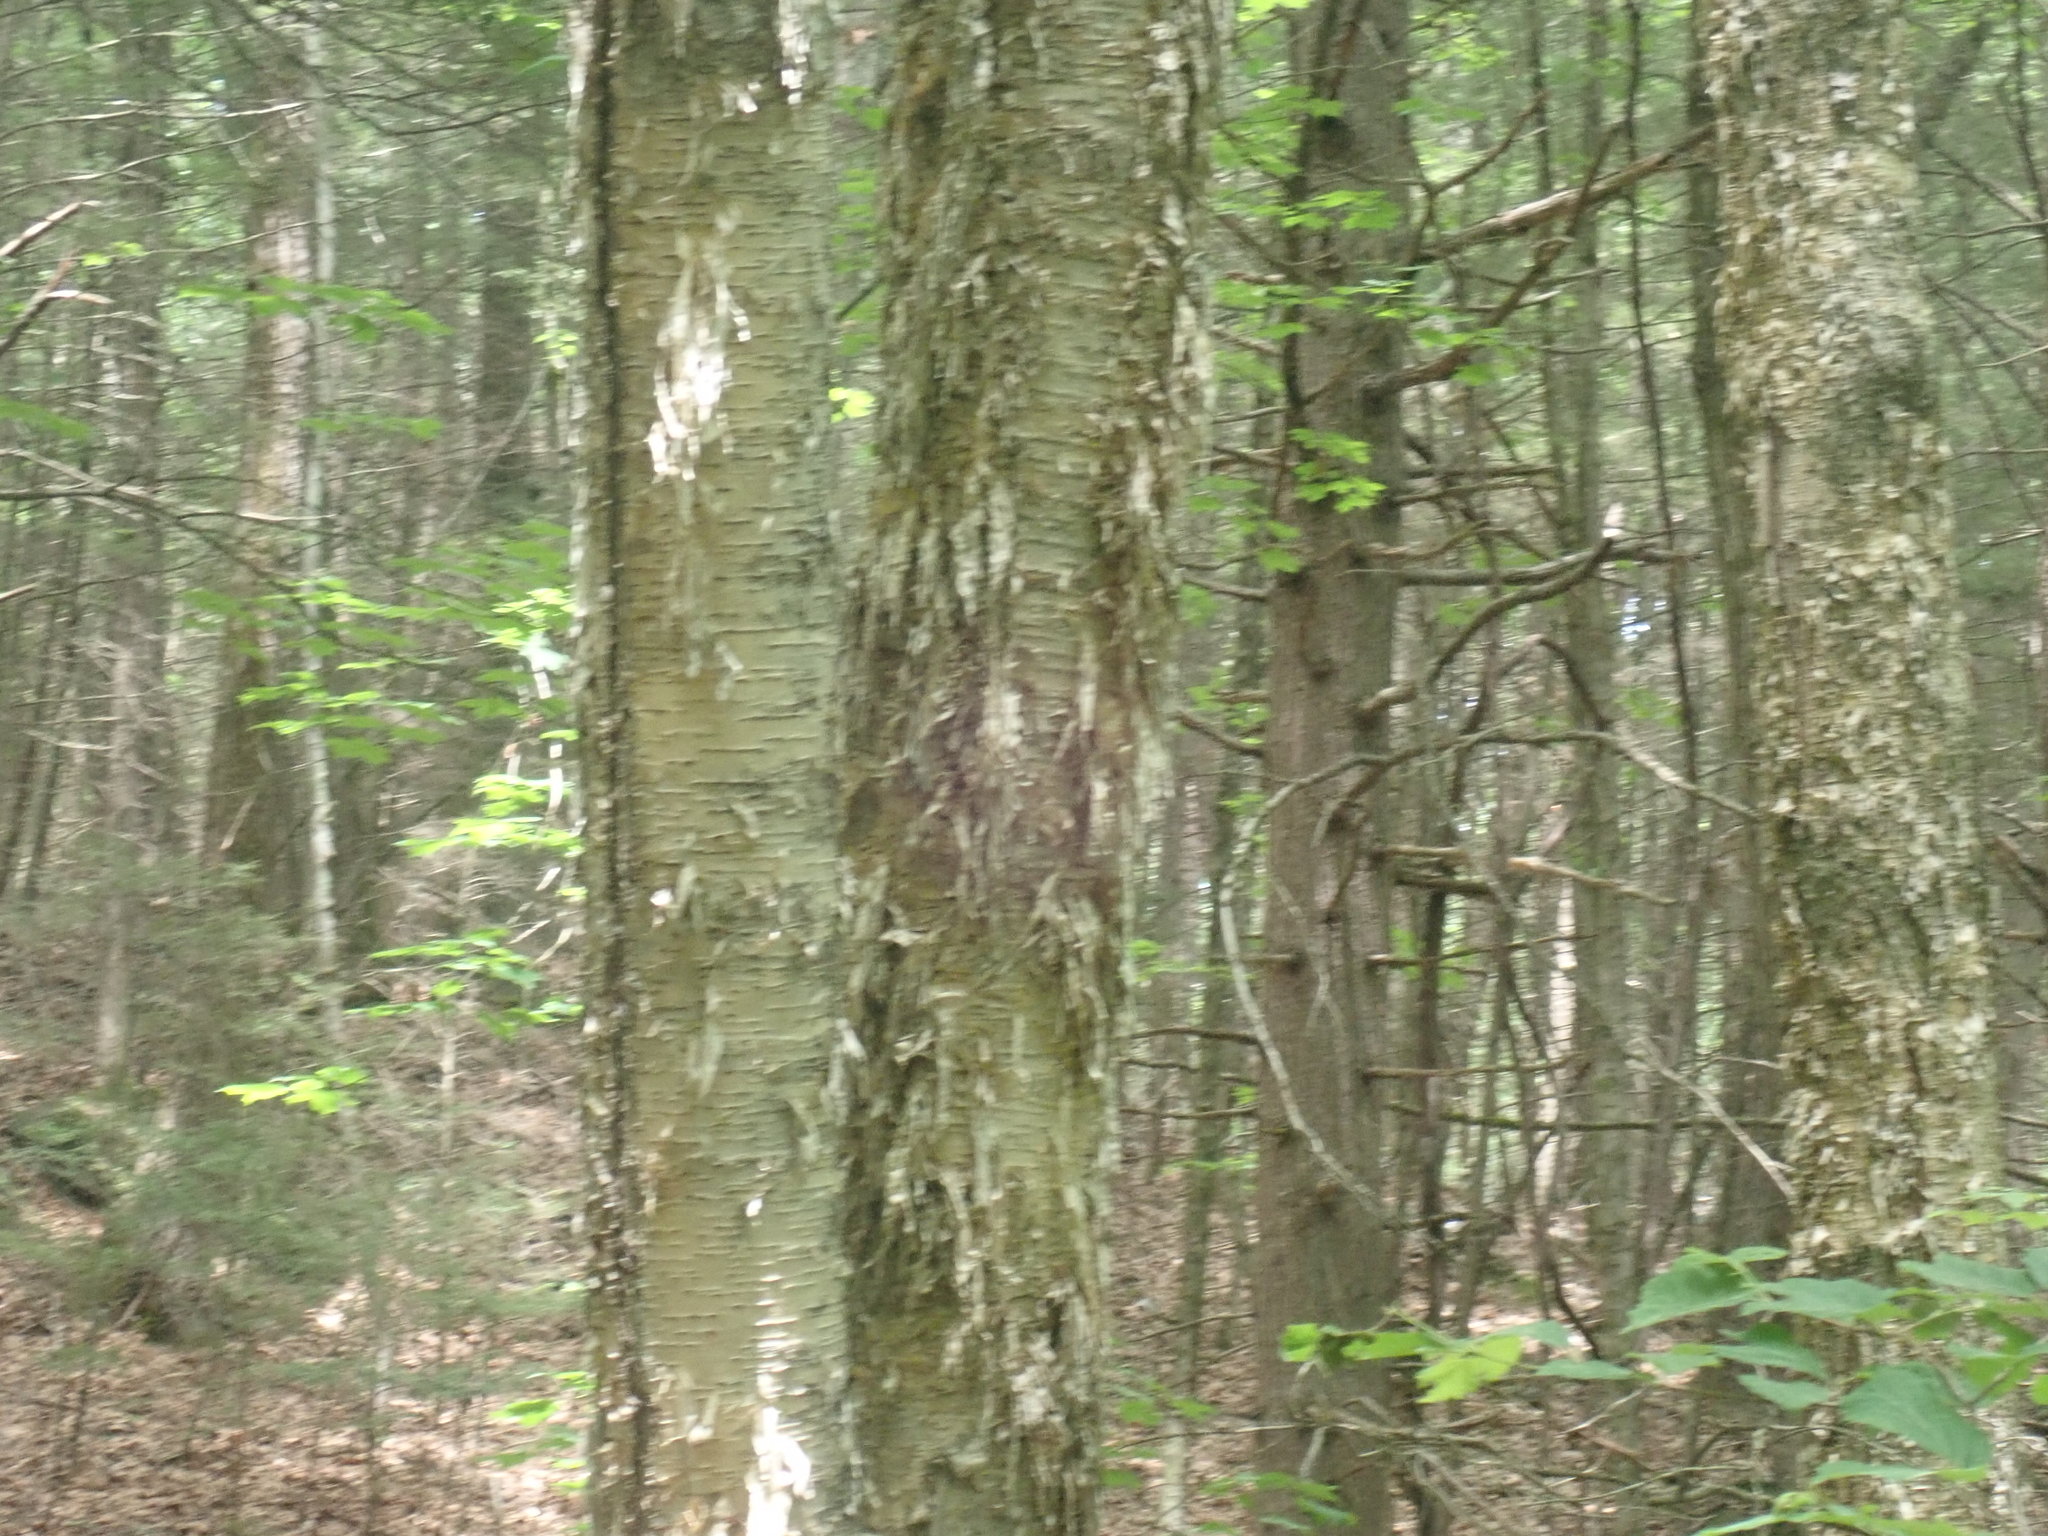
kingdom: Plantae
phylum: Tracheophyta
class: Magnoliopsida
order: Fagales
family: Betulaceae
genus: Betula
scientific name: Betula alleghaniensis
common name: Yellow birch
